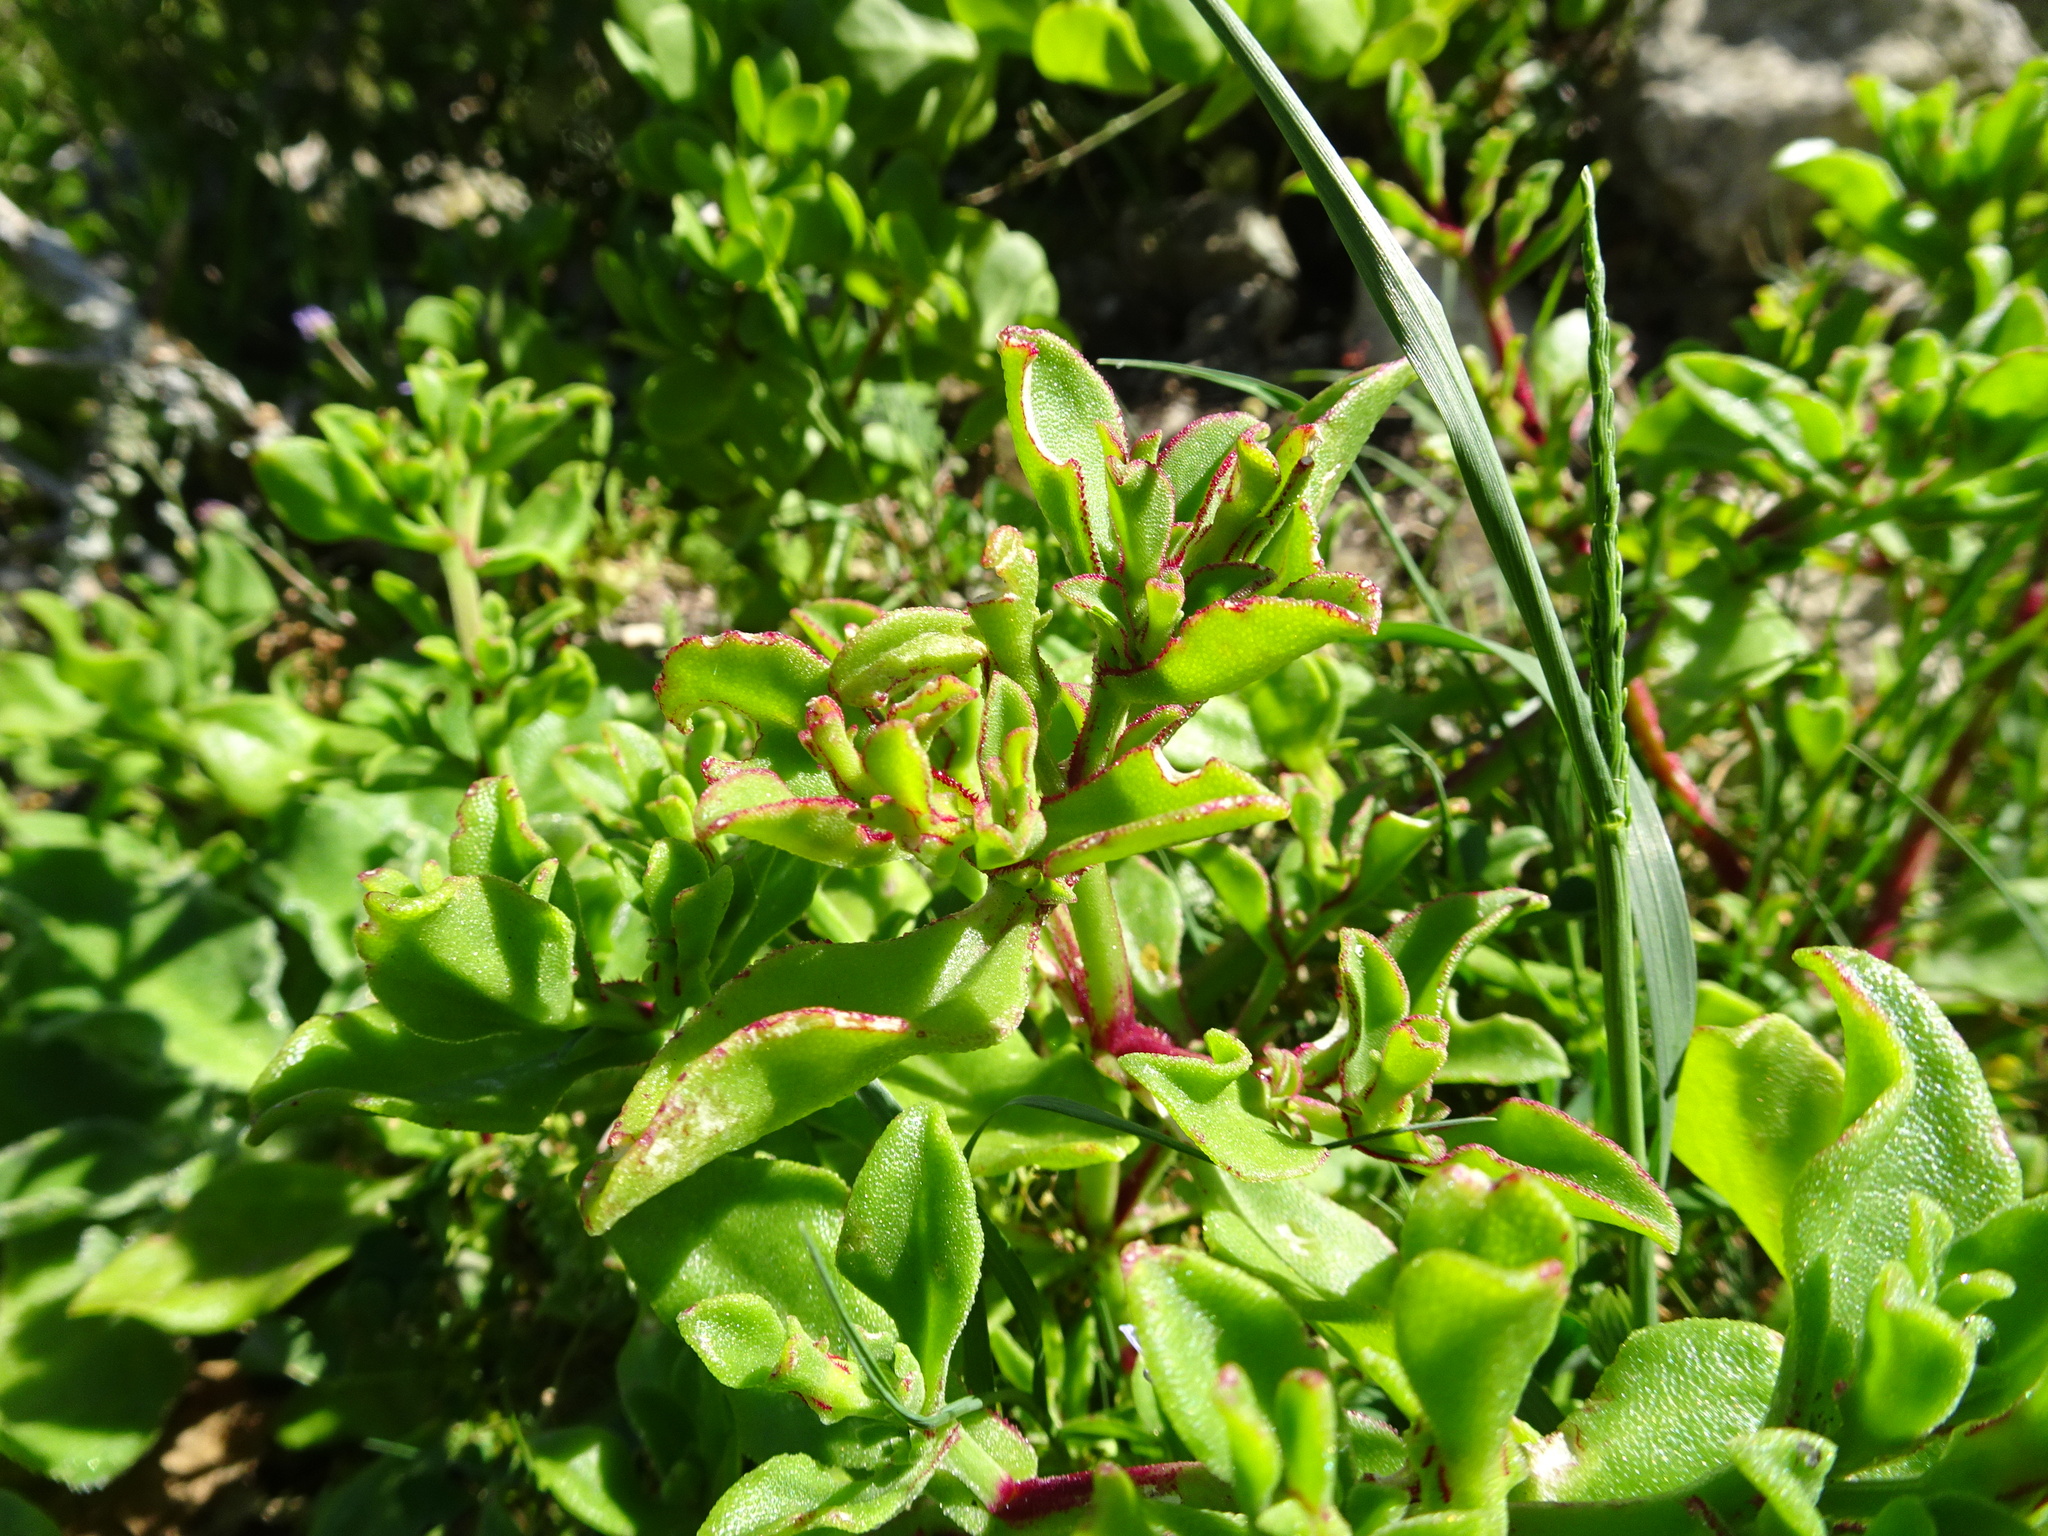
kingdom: Plantae
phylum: Tracheophyta
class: Magnoliopsida
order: Caryophyllales
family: Aizoaceae
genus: Mesembryanthemum
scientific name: Mesembryanthemum aitonis
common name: Angled iceplant
